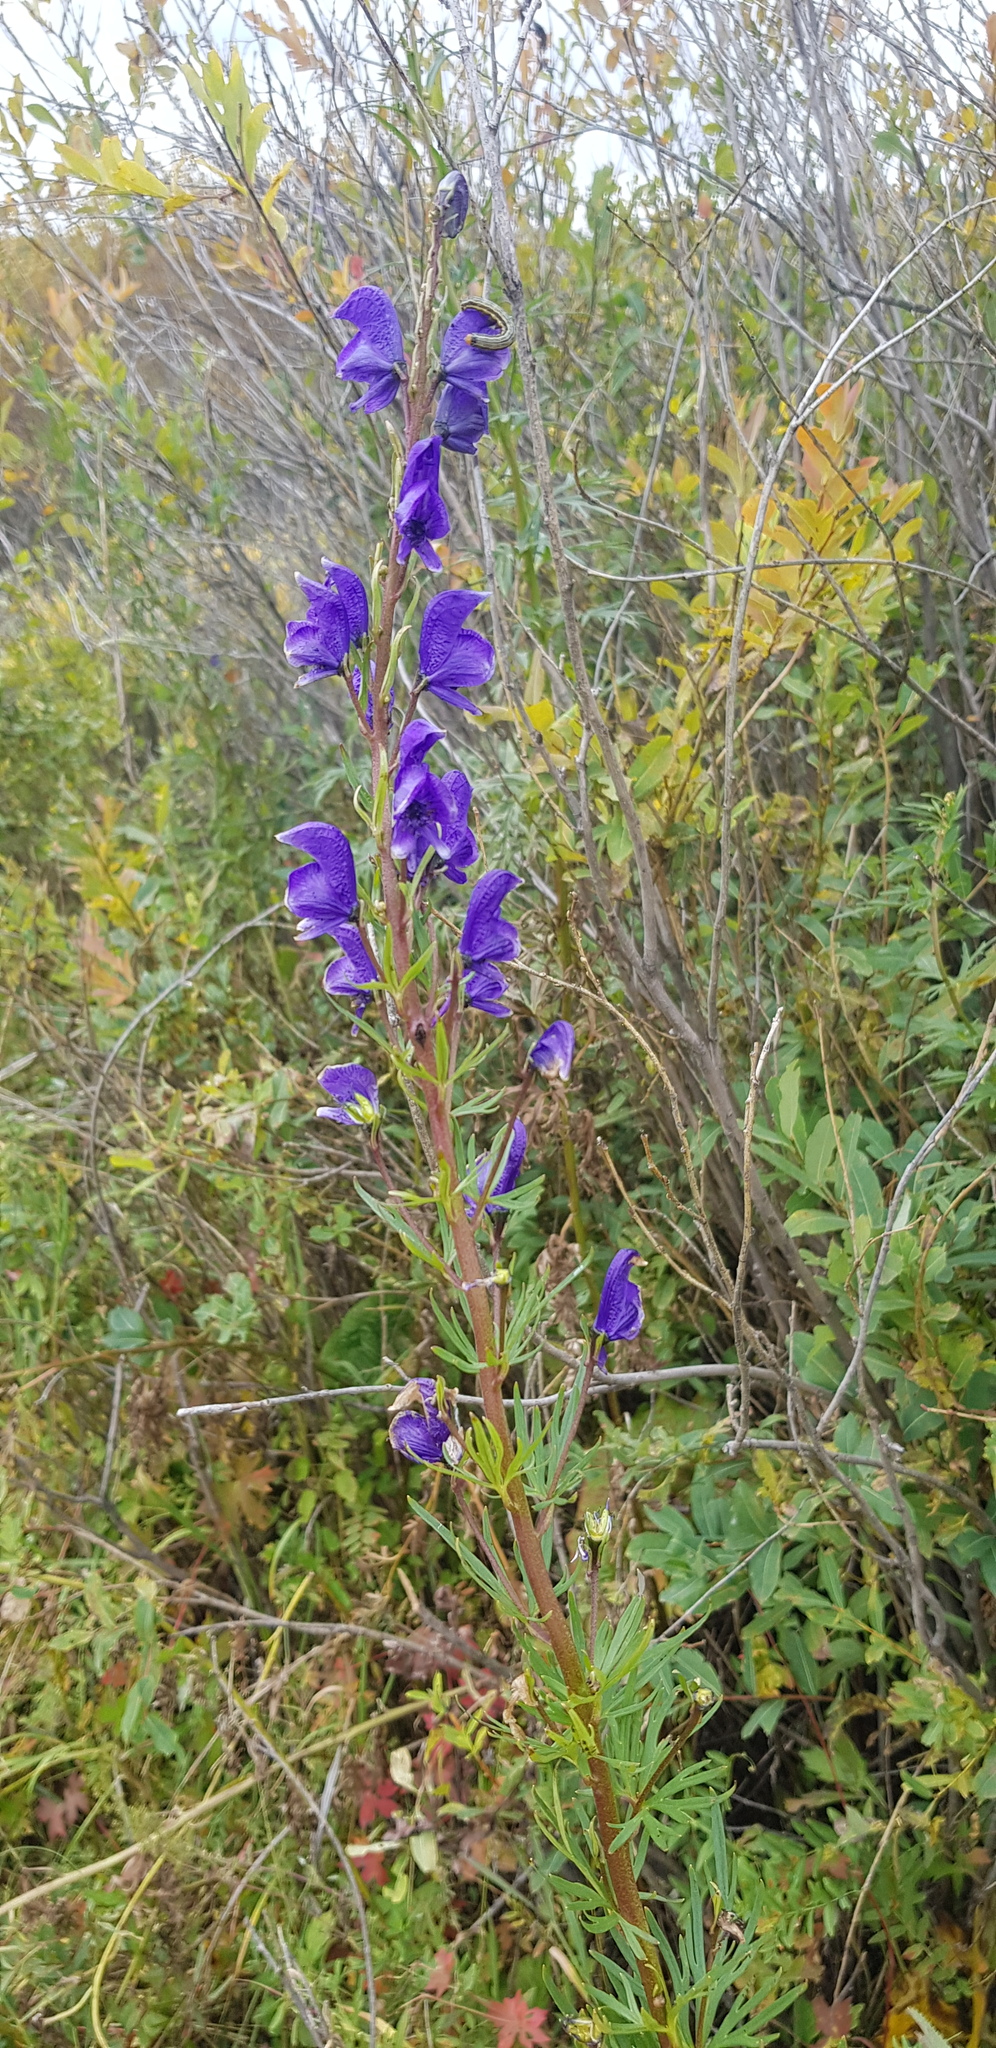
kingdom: Plantae
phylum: Tracheophyta
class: Magnoliopsida
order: Ranunculales
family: Ranunculaceae
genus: Aconitum
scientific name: Aconitum glandulosum
